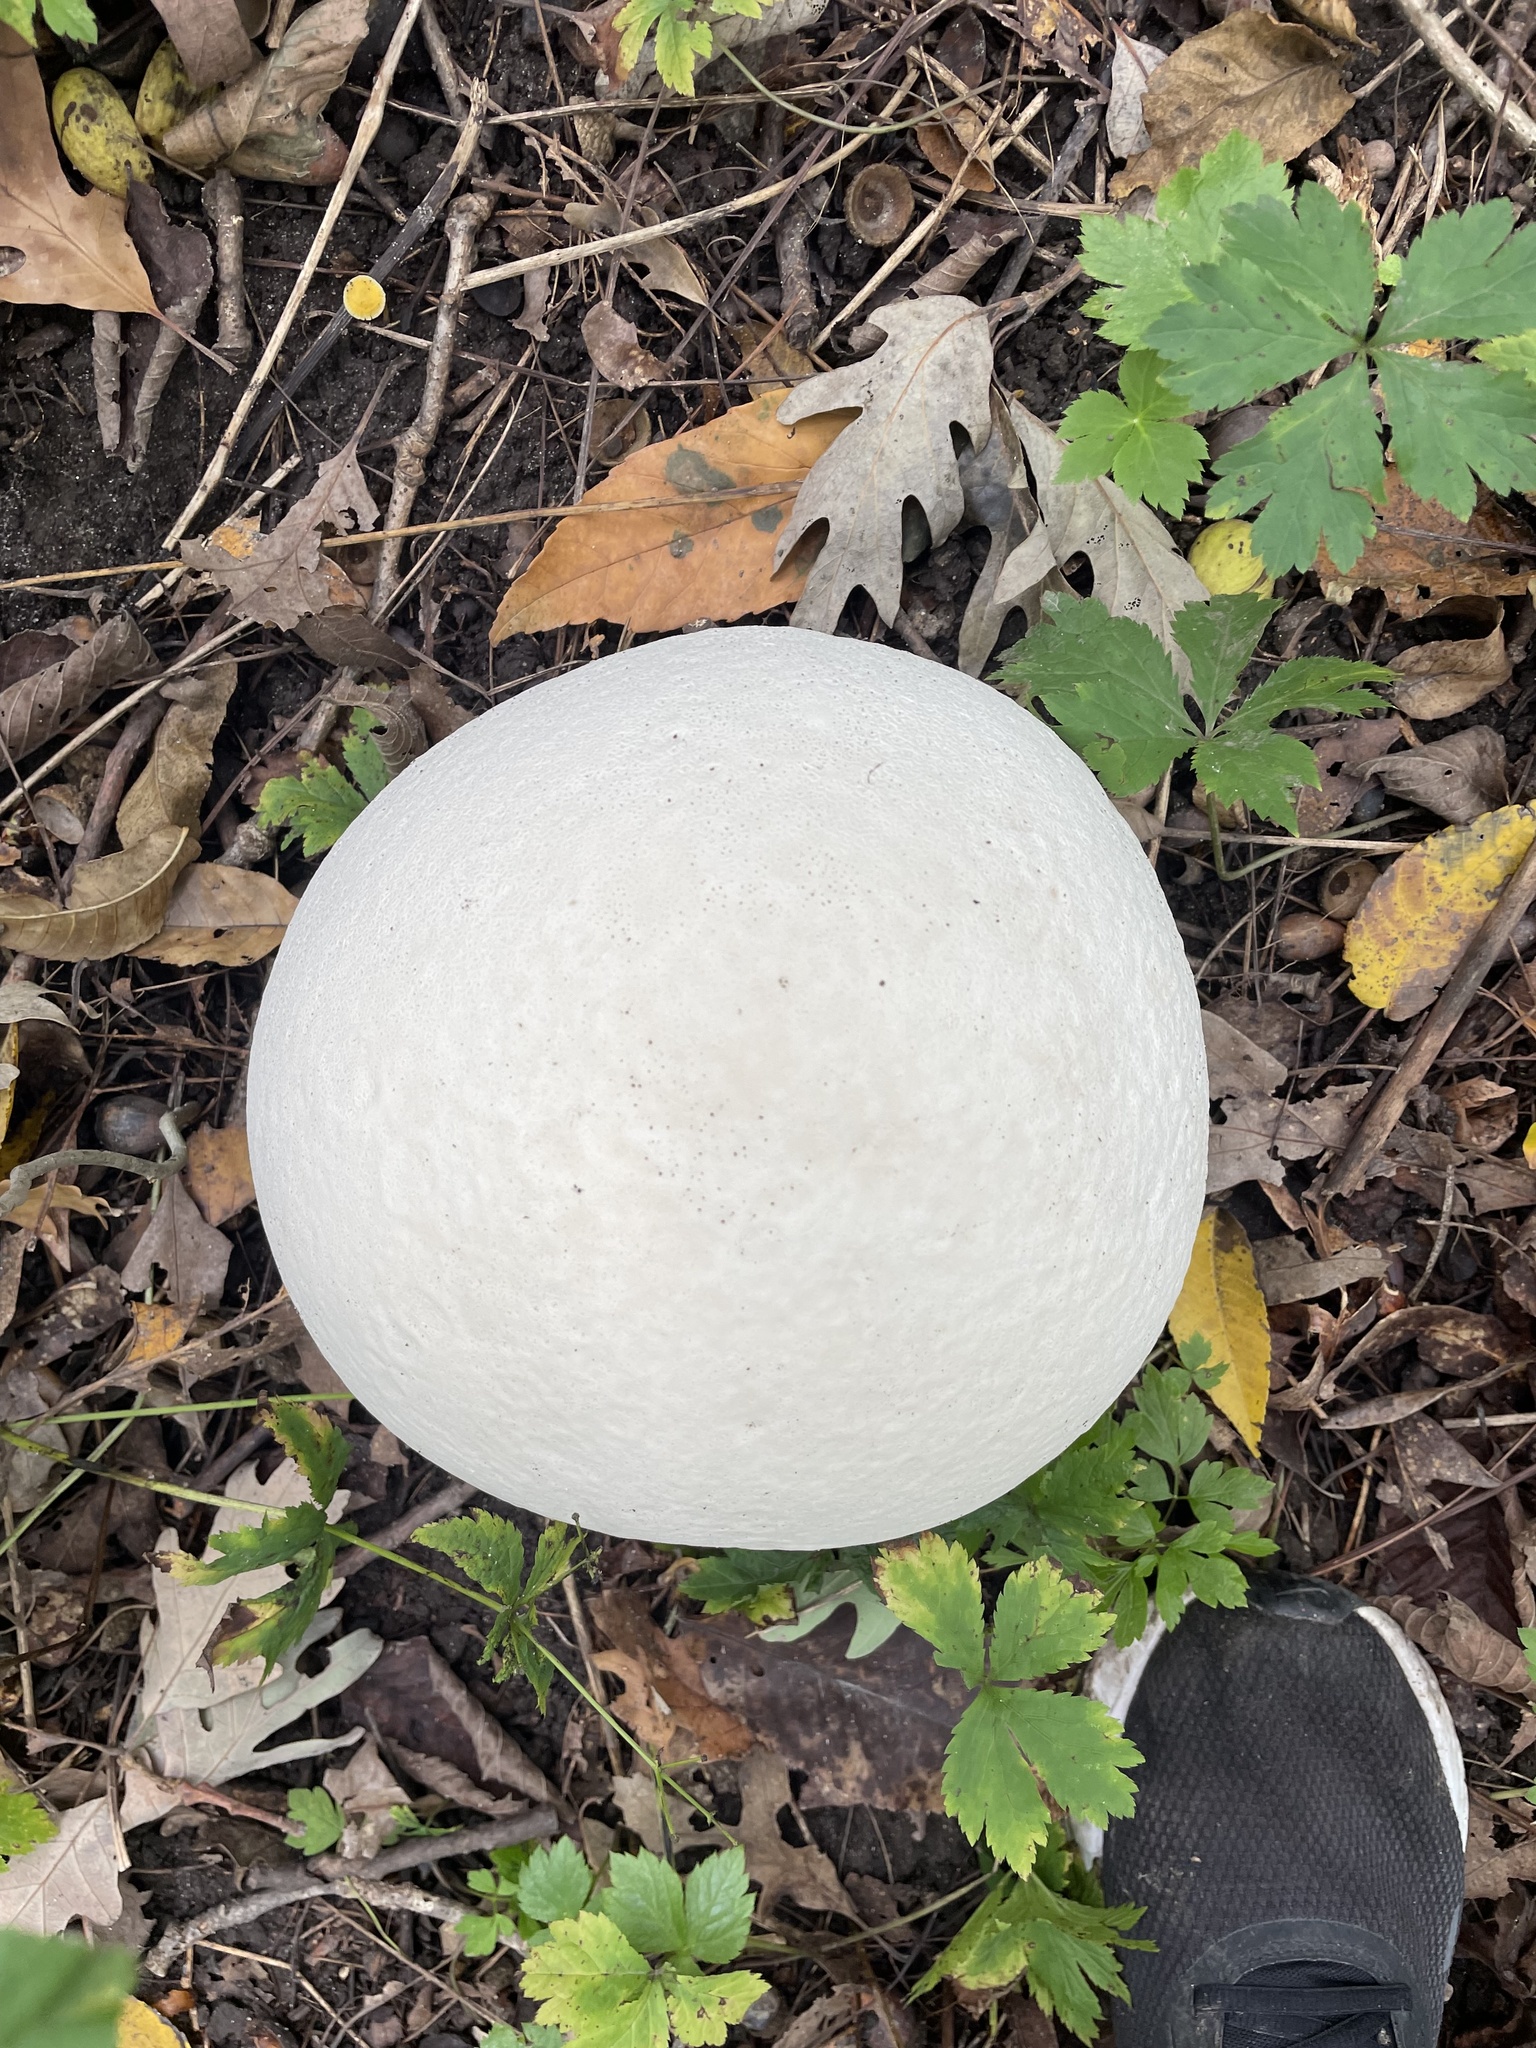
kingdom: Fungi
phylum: Basidiomycota
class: Agaricomycetes
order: Agaricales
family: Lycoperdaceae
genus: Calvatia
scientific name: Calvatia gigantea
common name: Giant puffball
